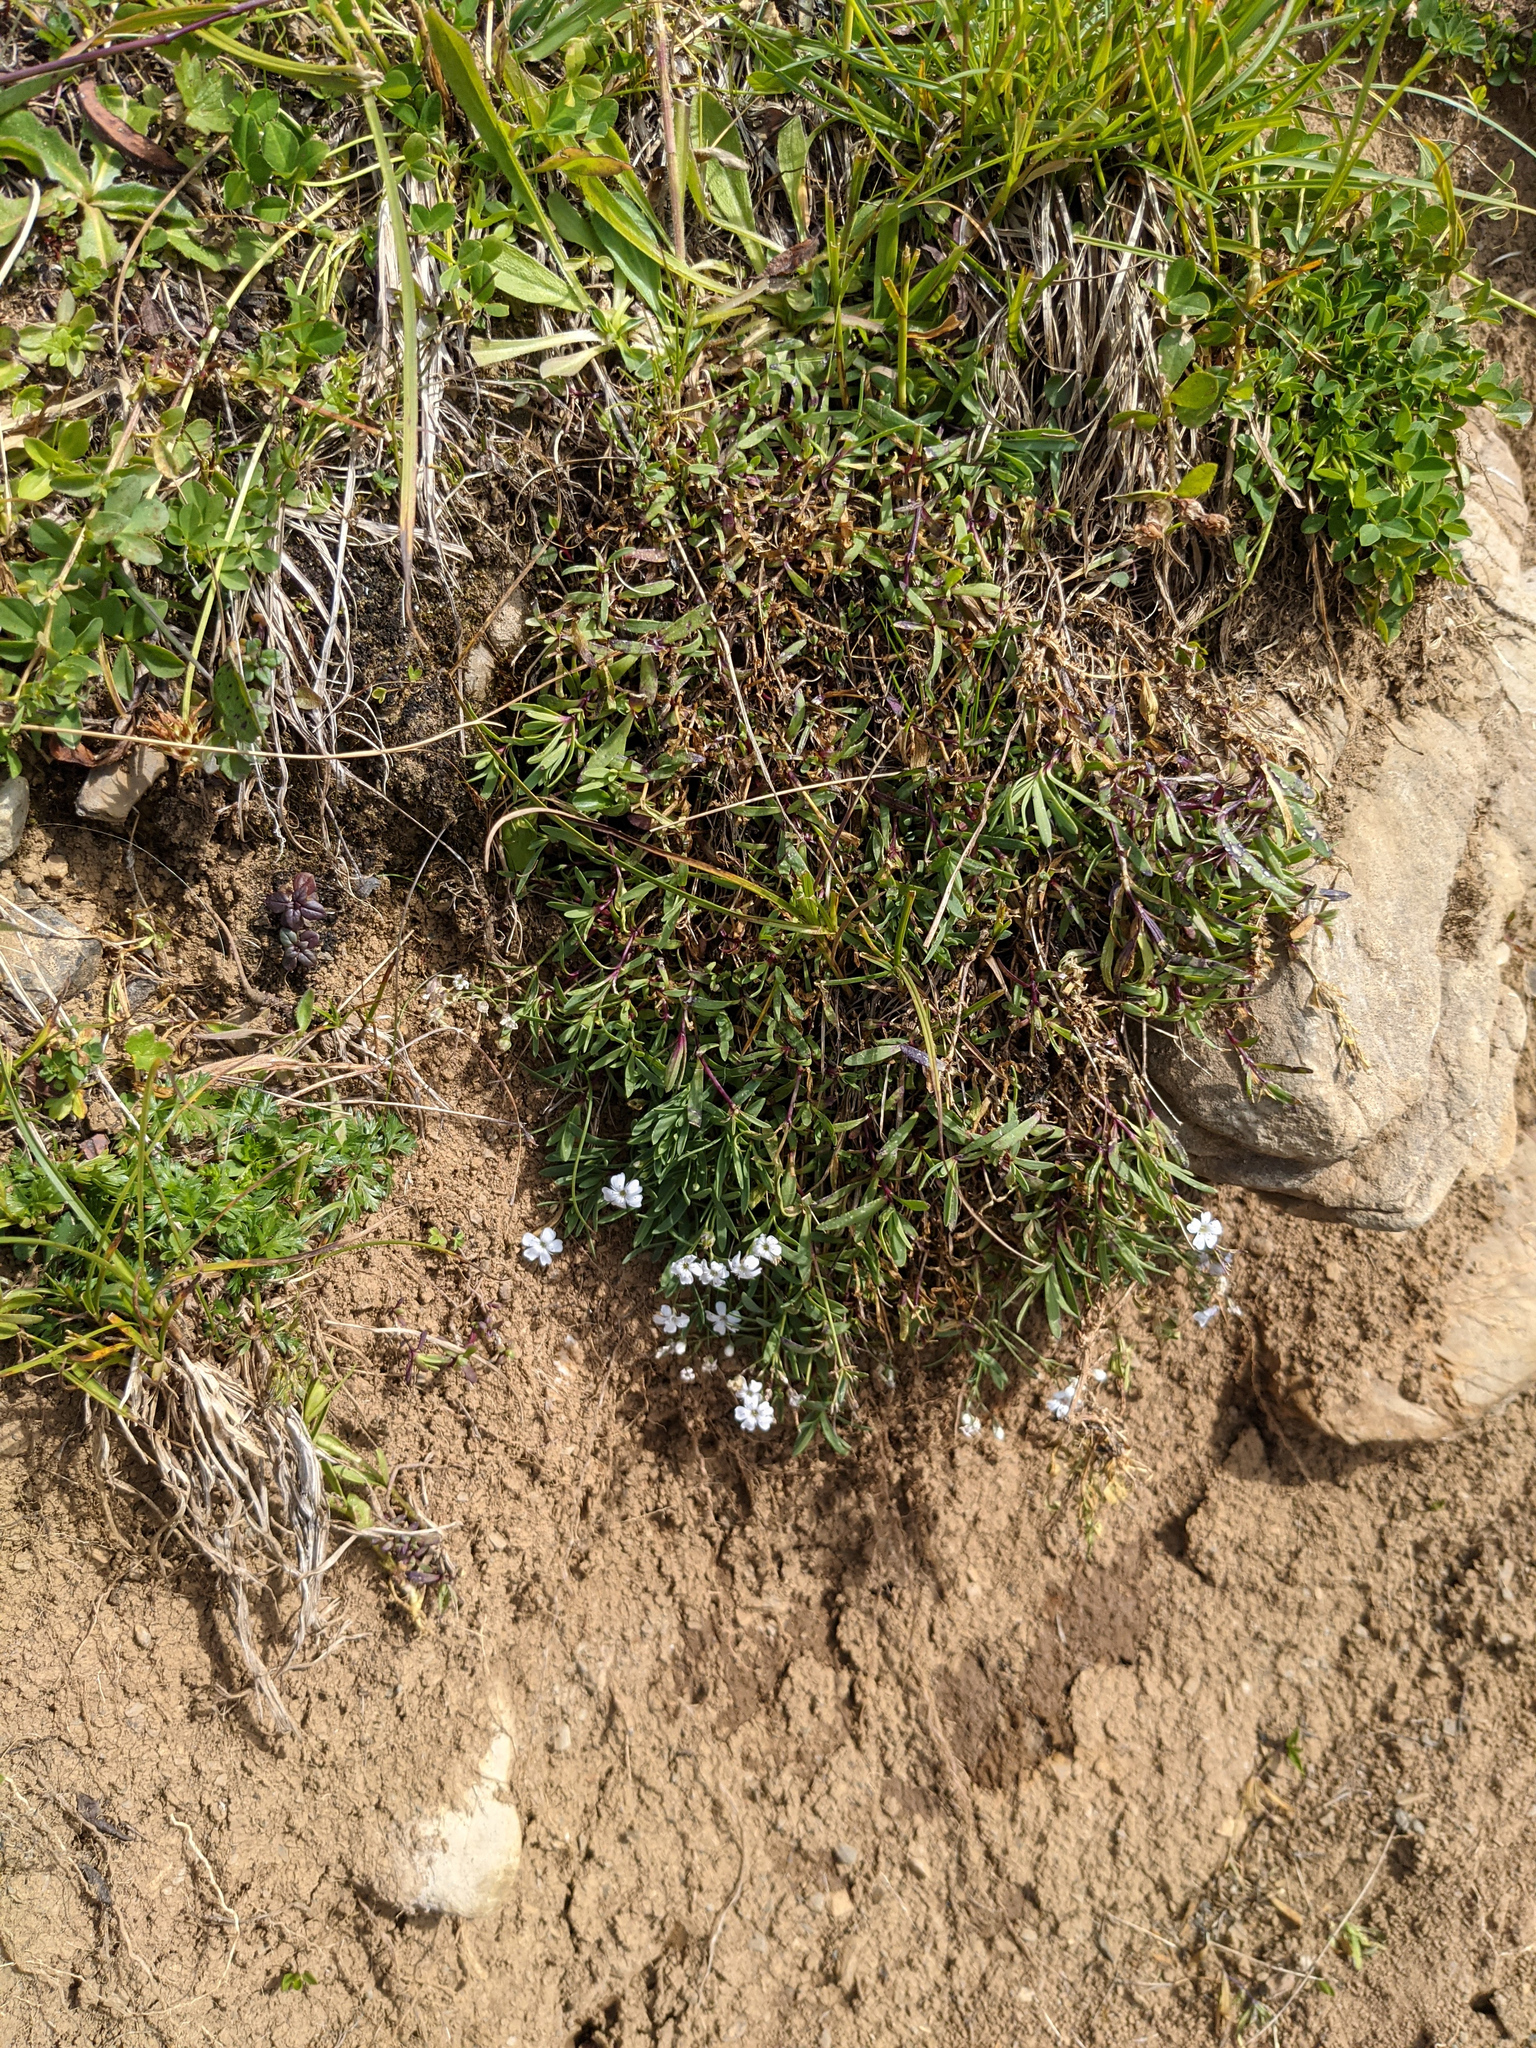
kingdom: Plantae
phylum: Tracheophyta
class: Magnoliopsida
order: Caryophyllales
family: Caryophyllaceae
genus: Gypsophila
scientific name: Gypsophila repens
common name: Creeping baby's-breath
